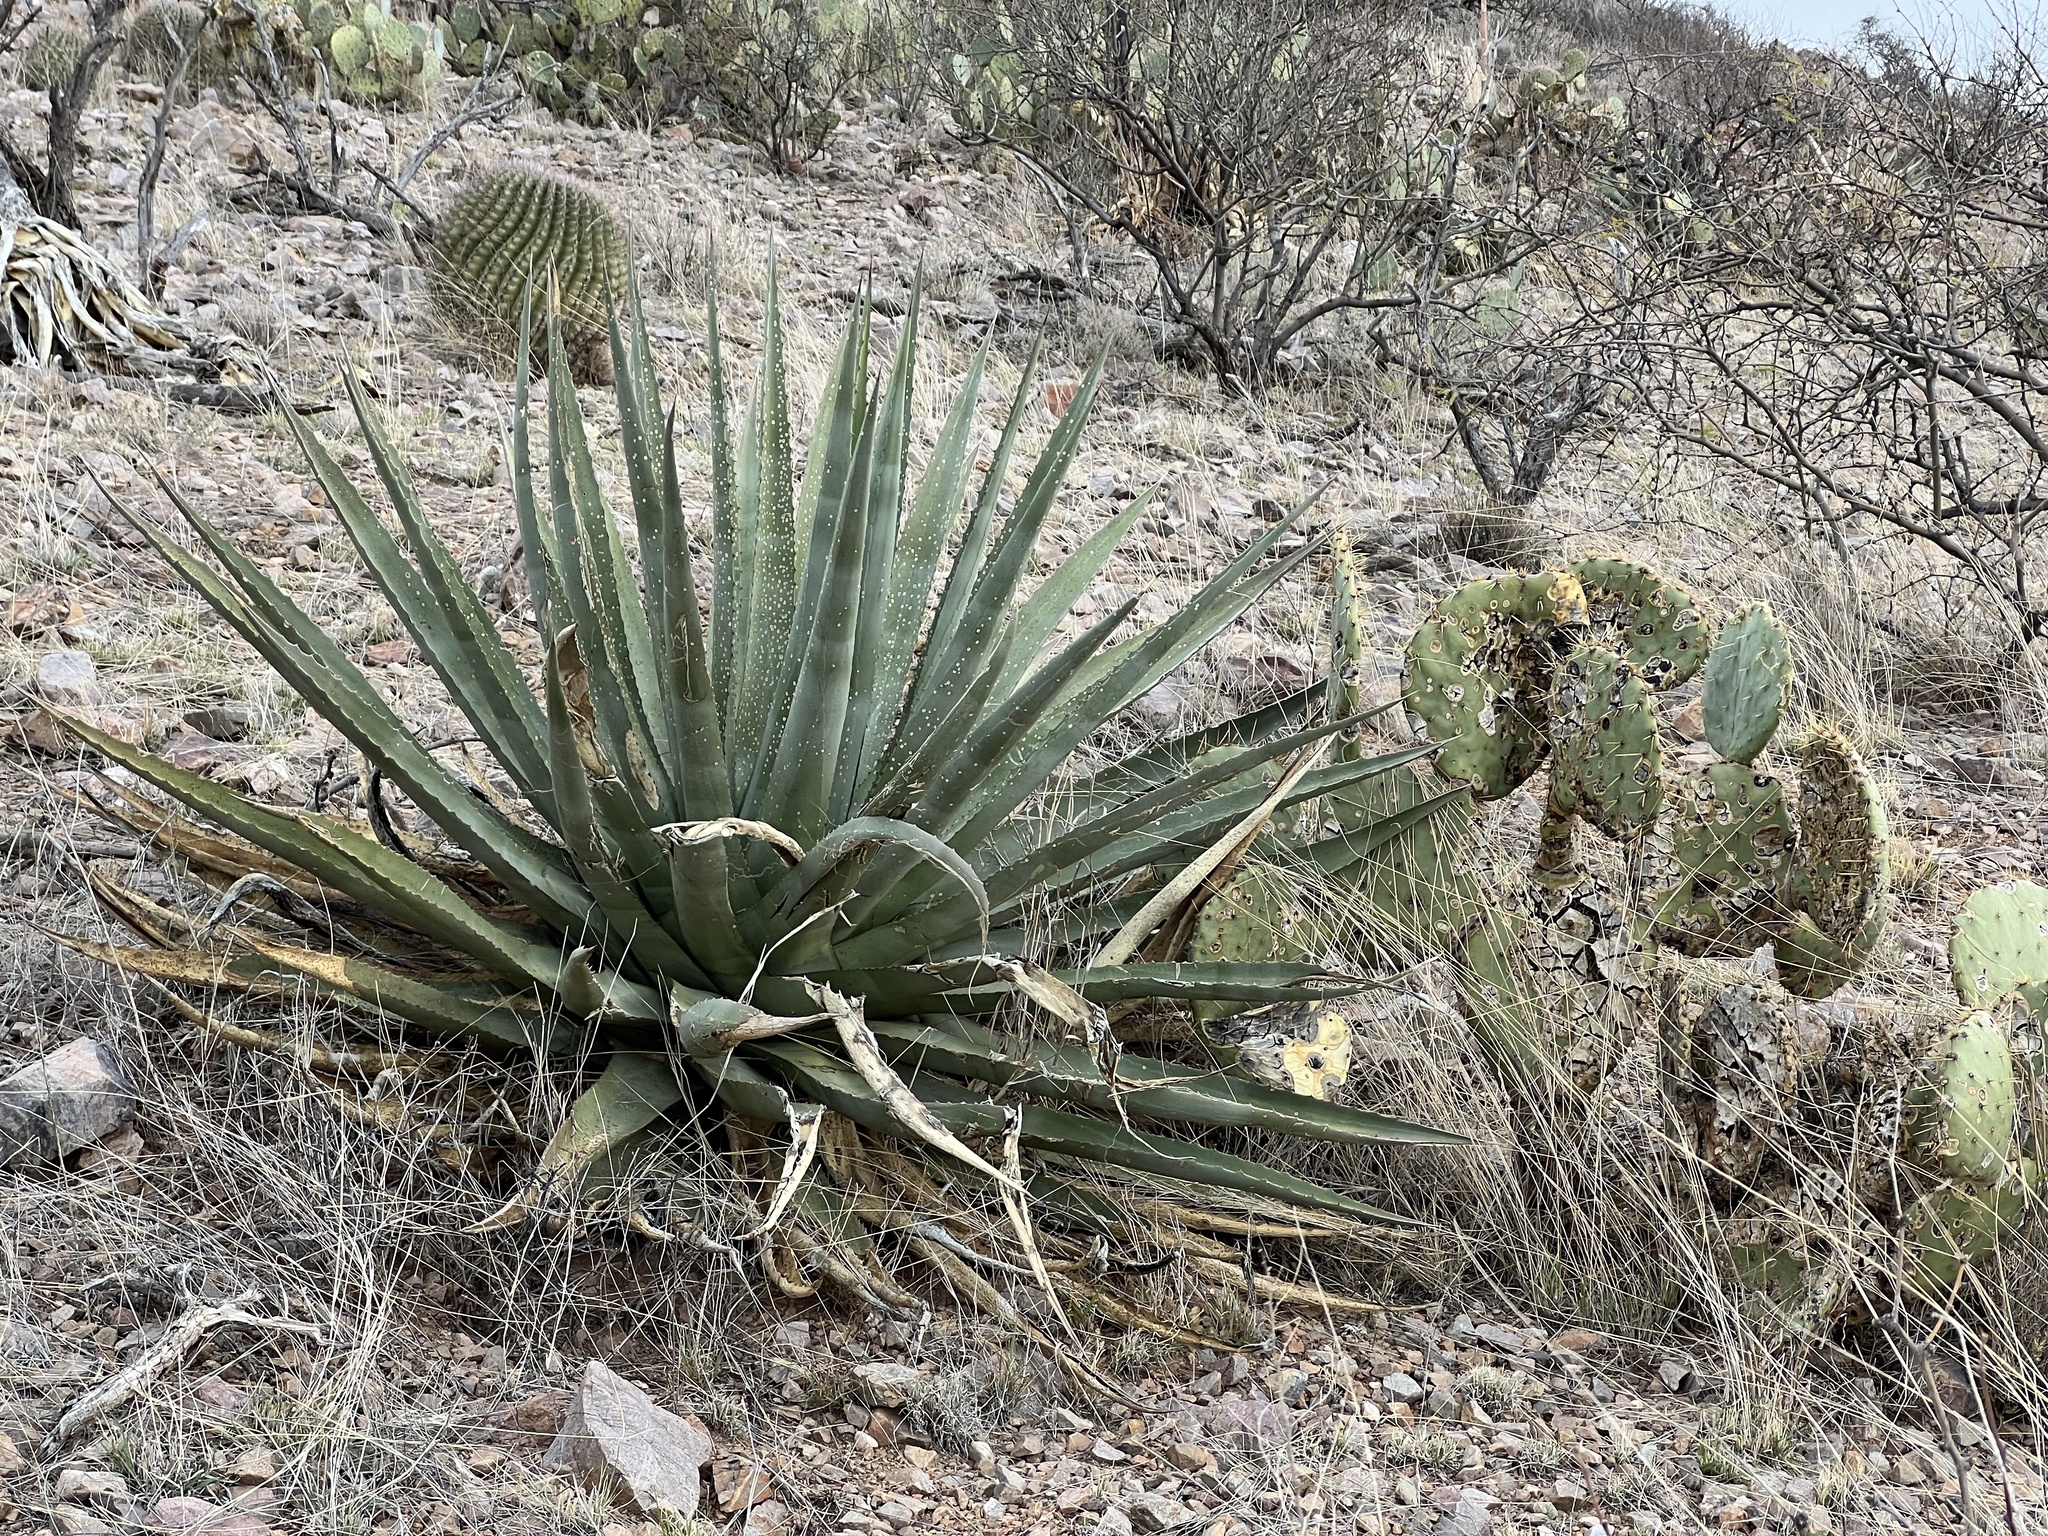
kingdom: Plantae
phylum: Tracheophyta
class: Liliopsida
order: Asparagales
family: Asparagaceae
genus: Agave
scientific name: Agave palmeri
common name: Palmer agave
